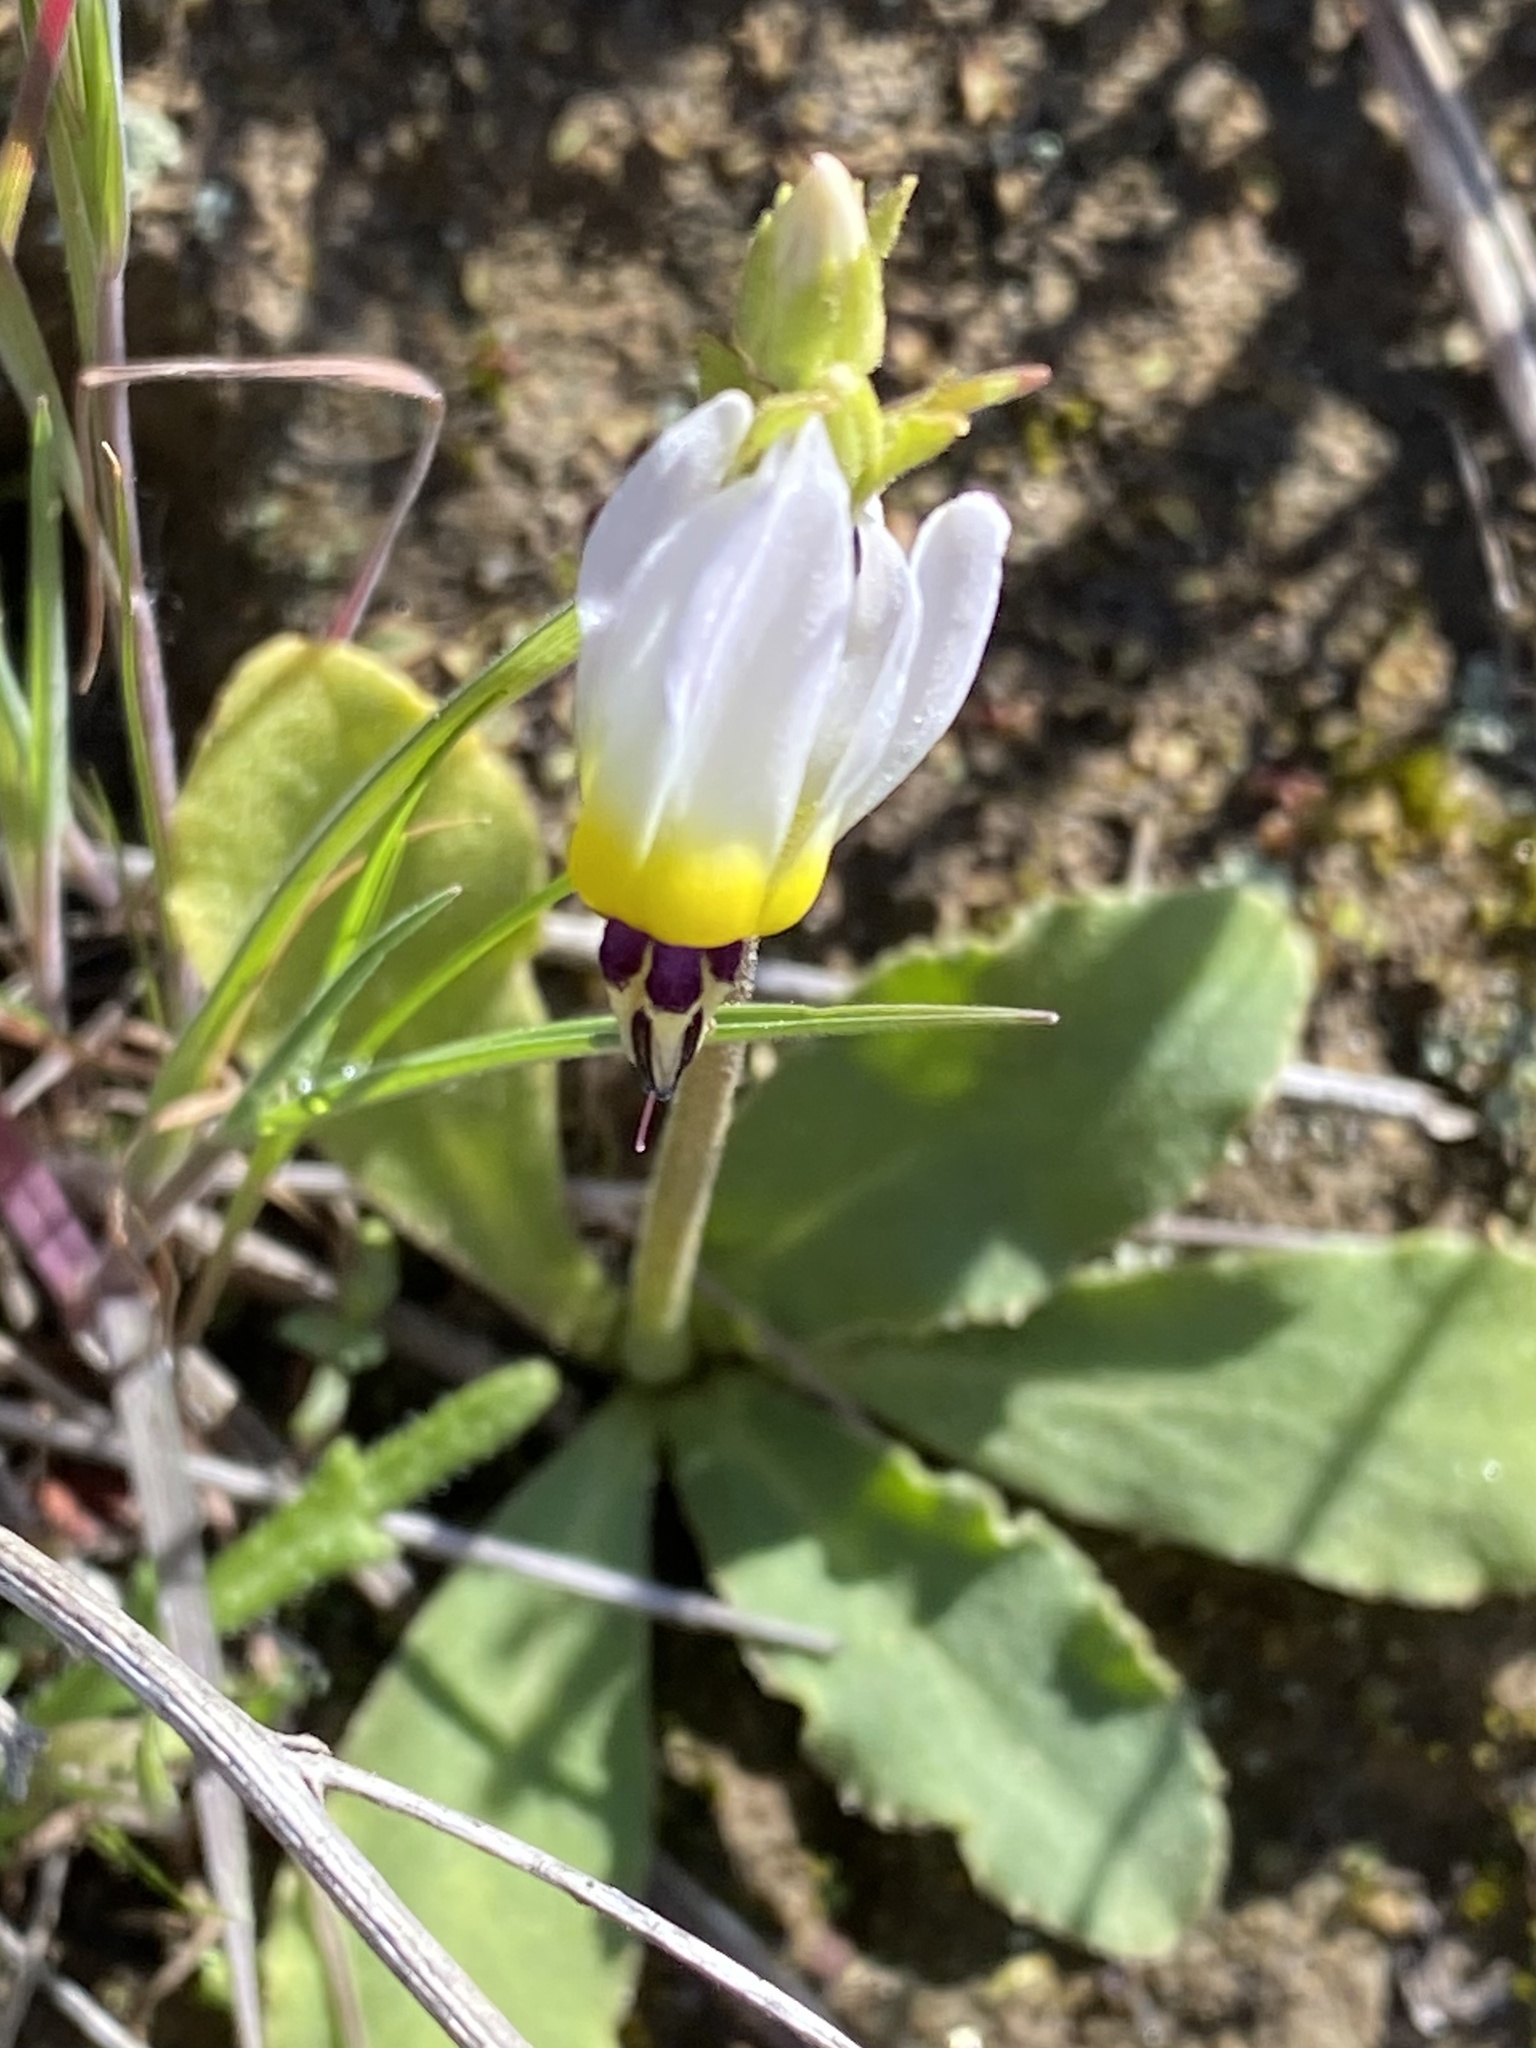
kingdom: Plantae
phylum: Tracheophyta
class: Magnoliopsida
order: Ericales
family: Primulaceae
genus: Dodecatheon
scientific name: Dodecatheon clevelandii
